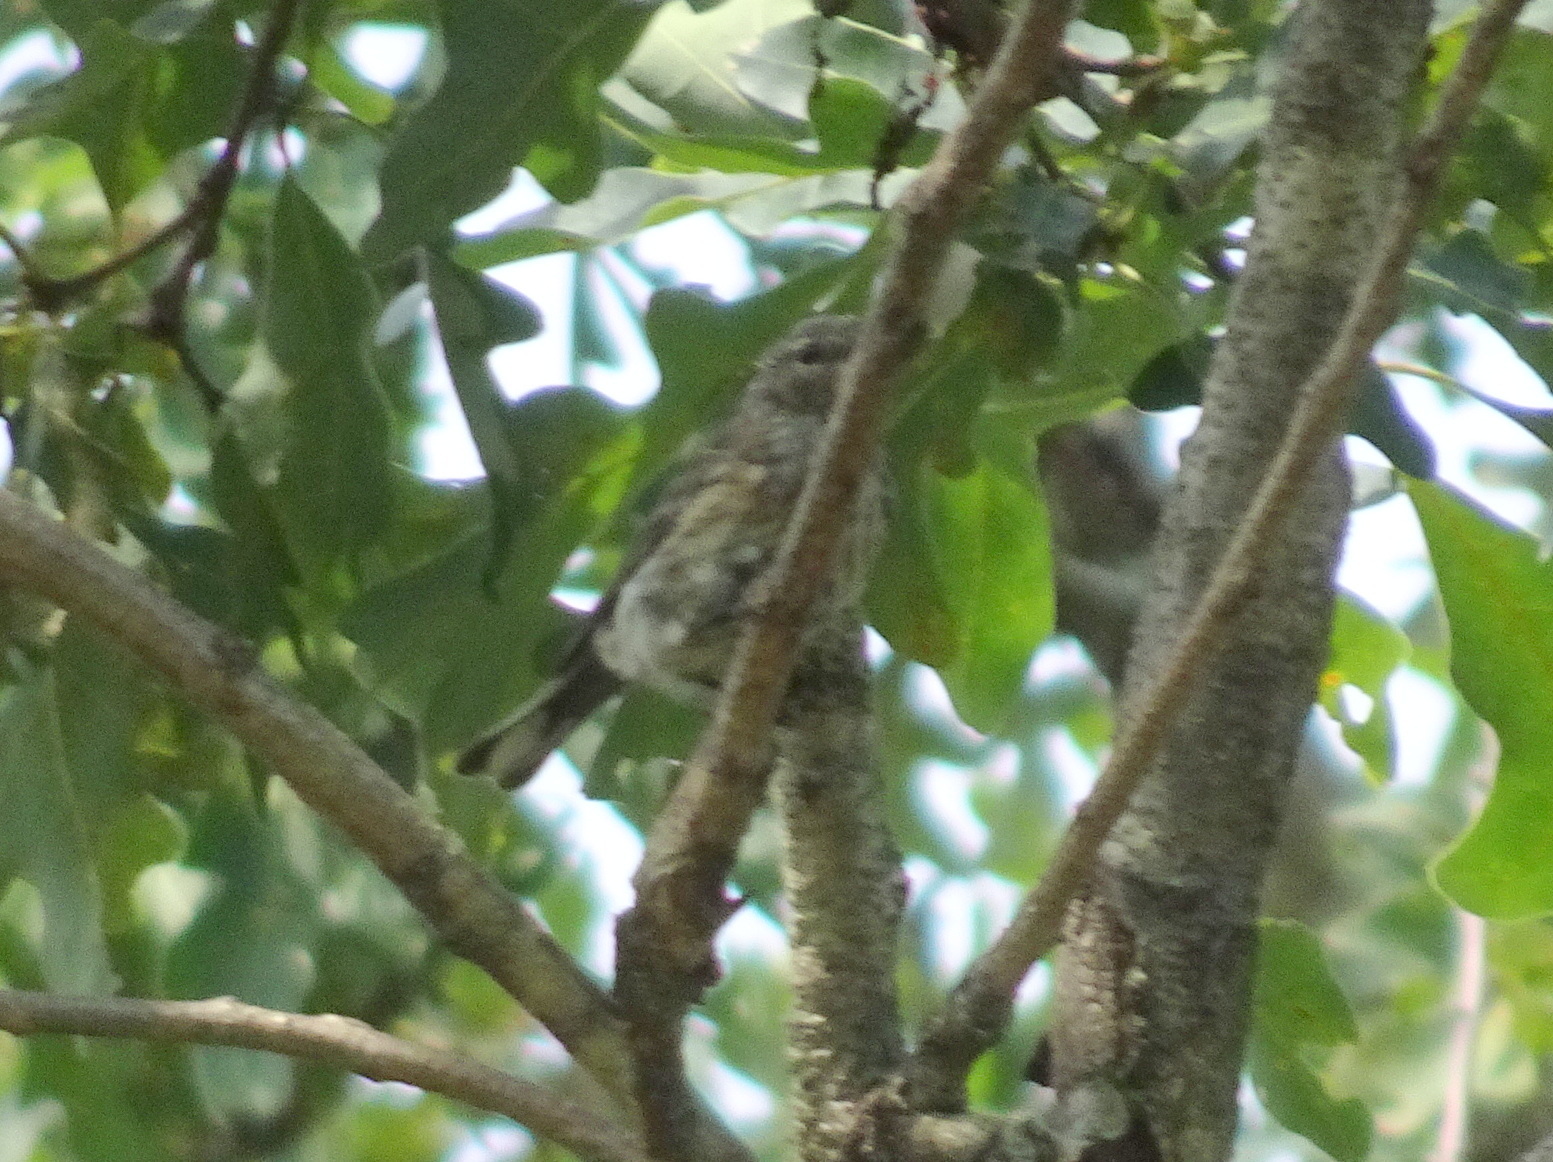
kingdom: Animalia
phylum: Chordata
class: Aves
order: Passeriformes
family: Parulidae
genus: Setophaga
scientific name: Setophaga coronata
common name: Myrtle warbler
